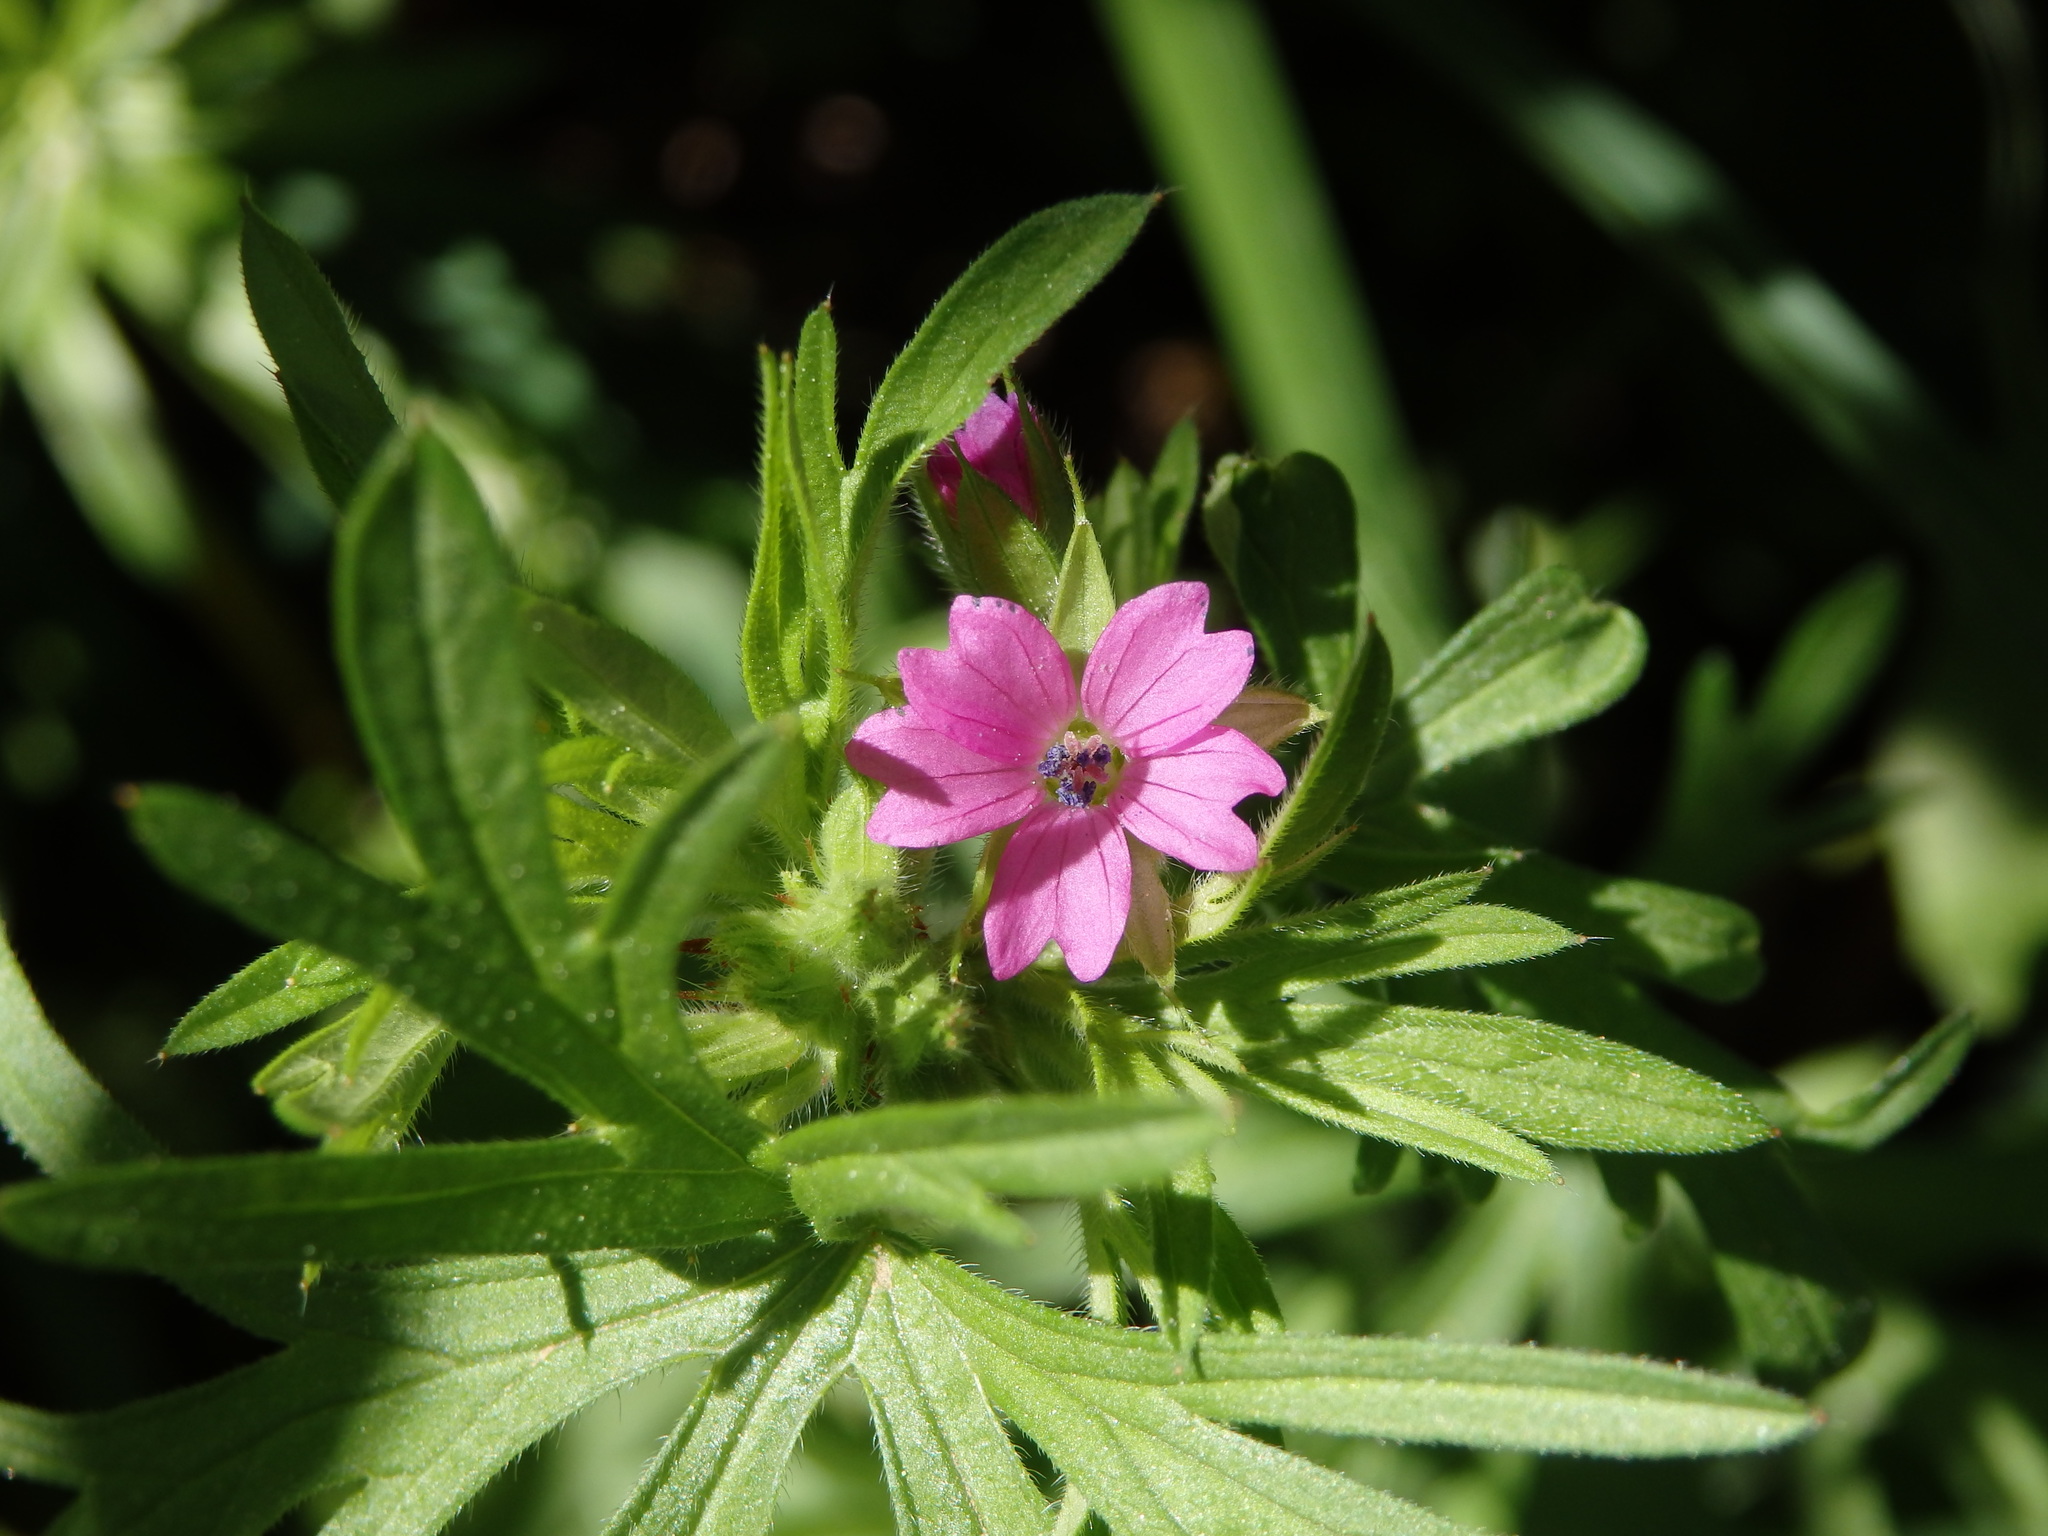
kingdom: Plantae
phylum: Tracheophyta
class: Magnoliopsida
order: Geraniales
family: Geraniaceae
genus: Geranium
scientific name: Geranium dissectum
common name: Cut-leaved crane's-bill
